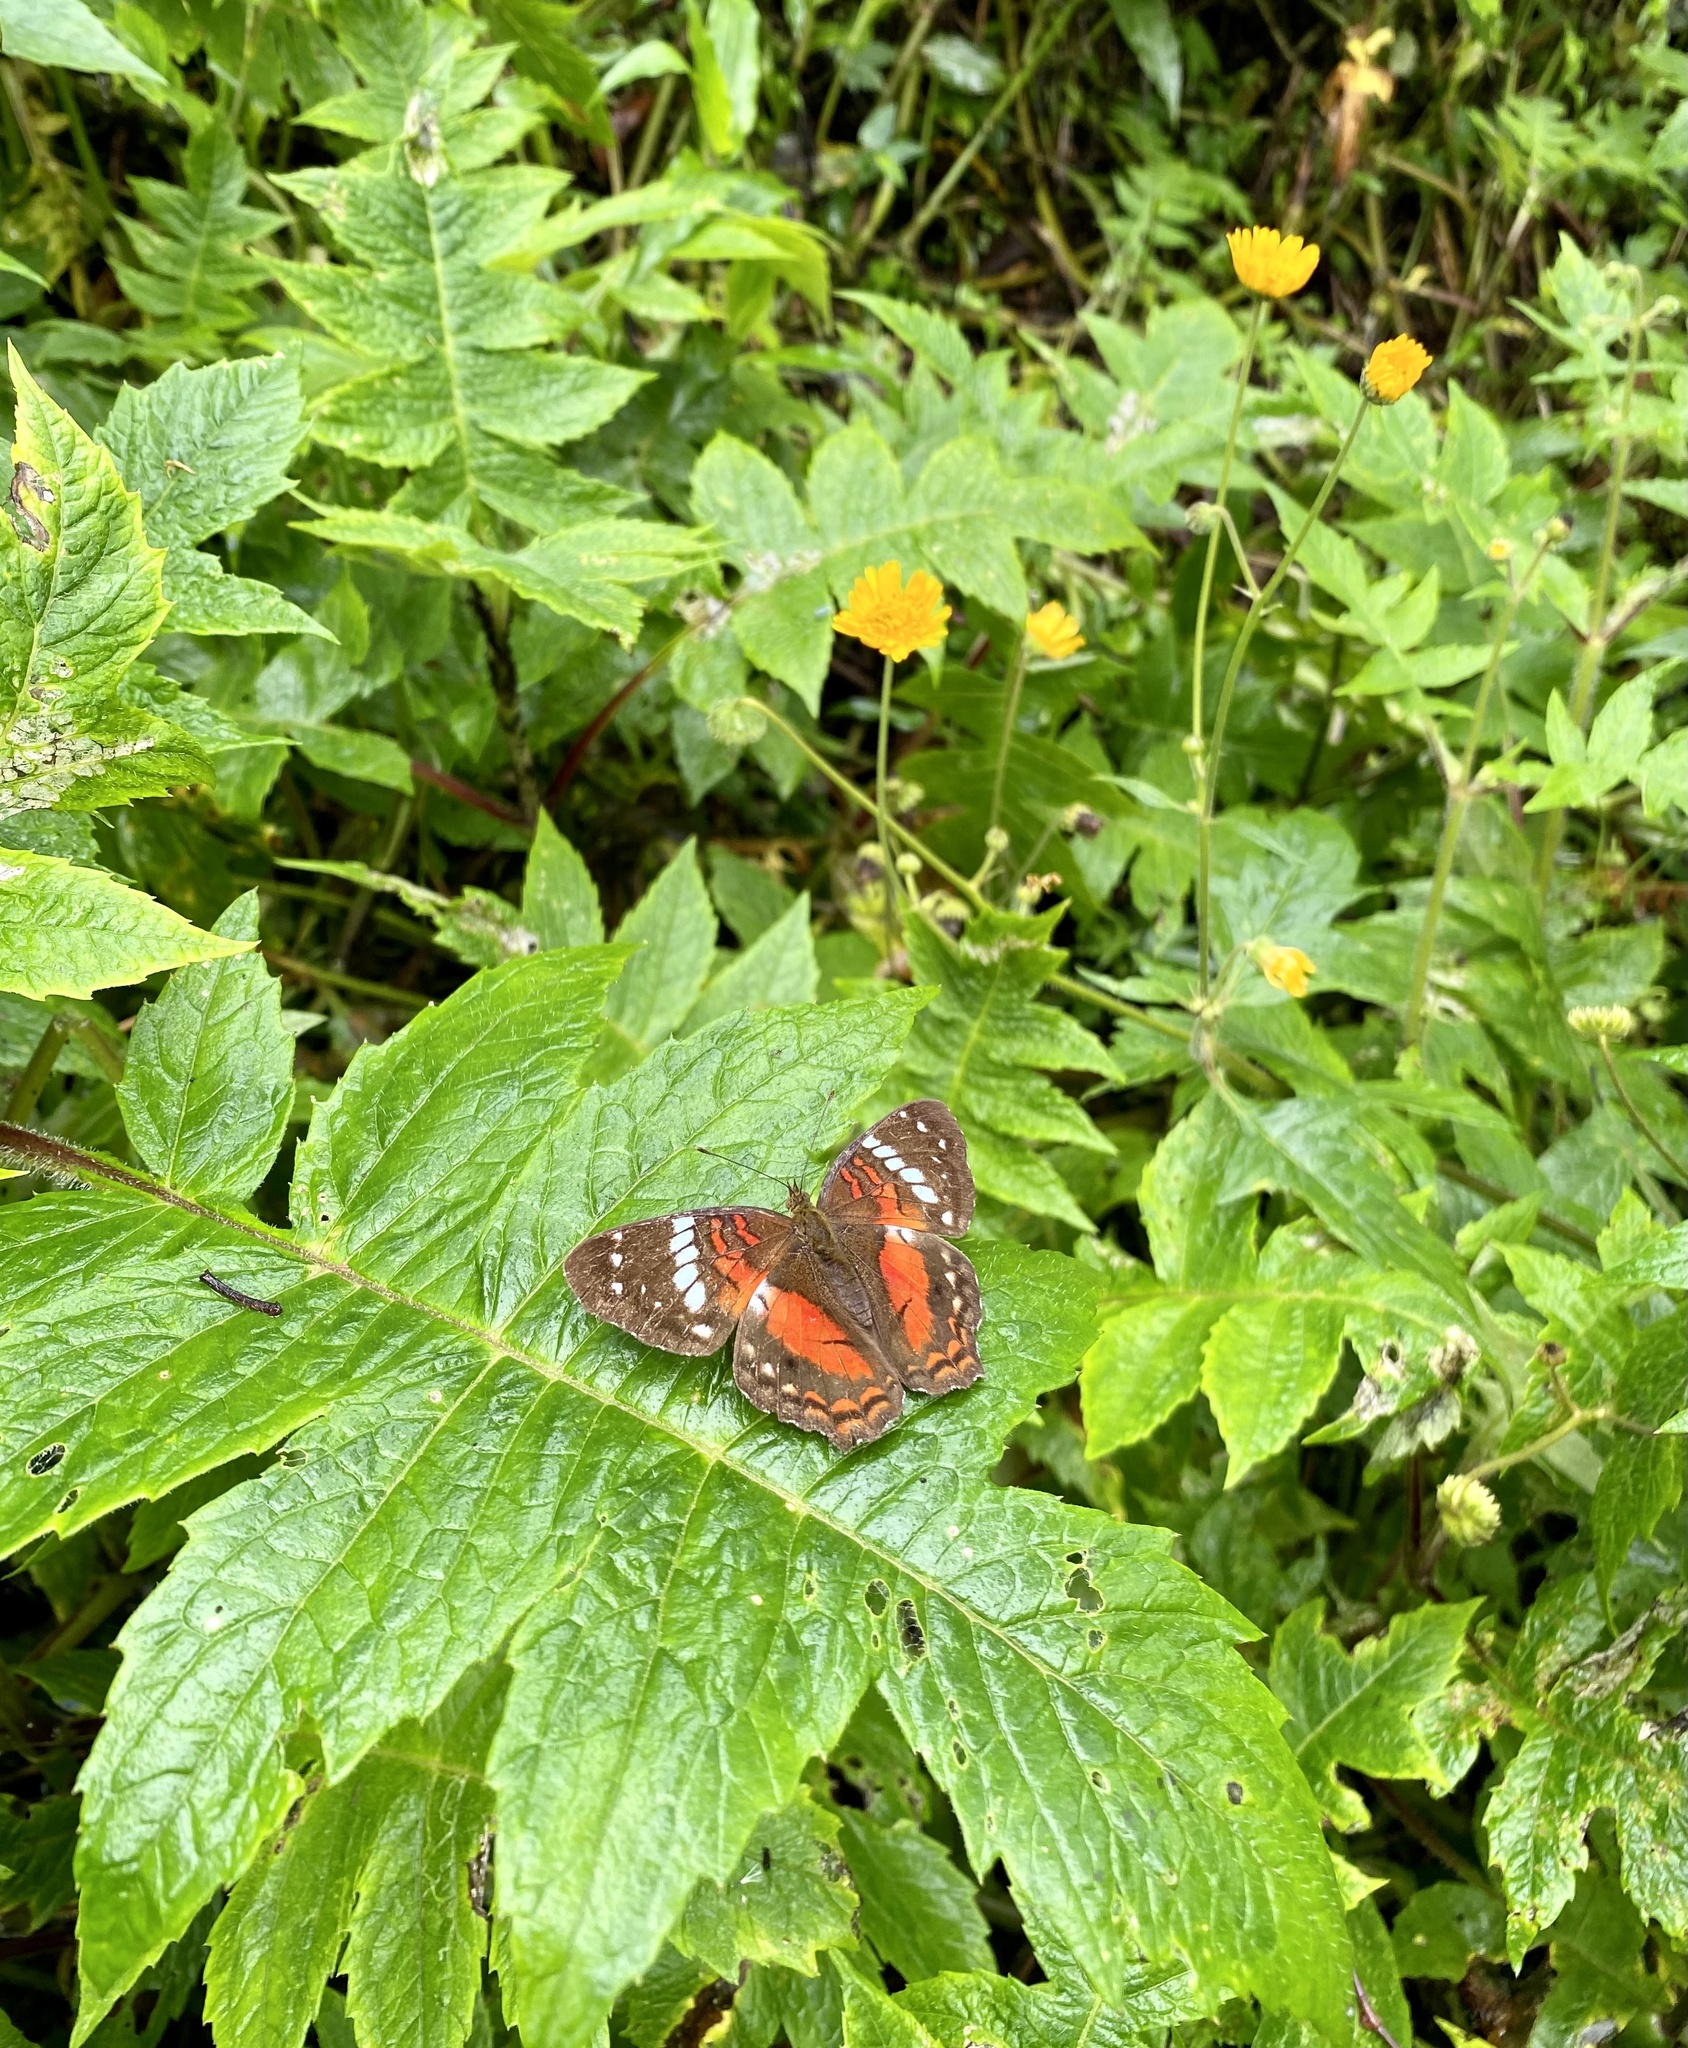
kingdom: Animalia
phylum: Arthropoda
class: Insecta
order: Lepidoptera
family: Nymphalidae
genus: Anartia
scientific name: Anartia amathea
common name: Red peacock
